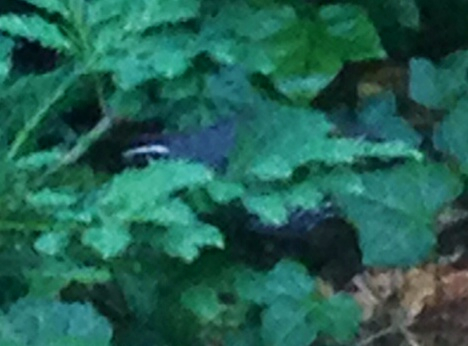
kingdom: Animalia
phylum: Chordata
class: Aves
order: Galliformes
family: Odontophoridae
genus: Callipepla
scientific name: Callipepla californica
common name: California quail
